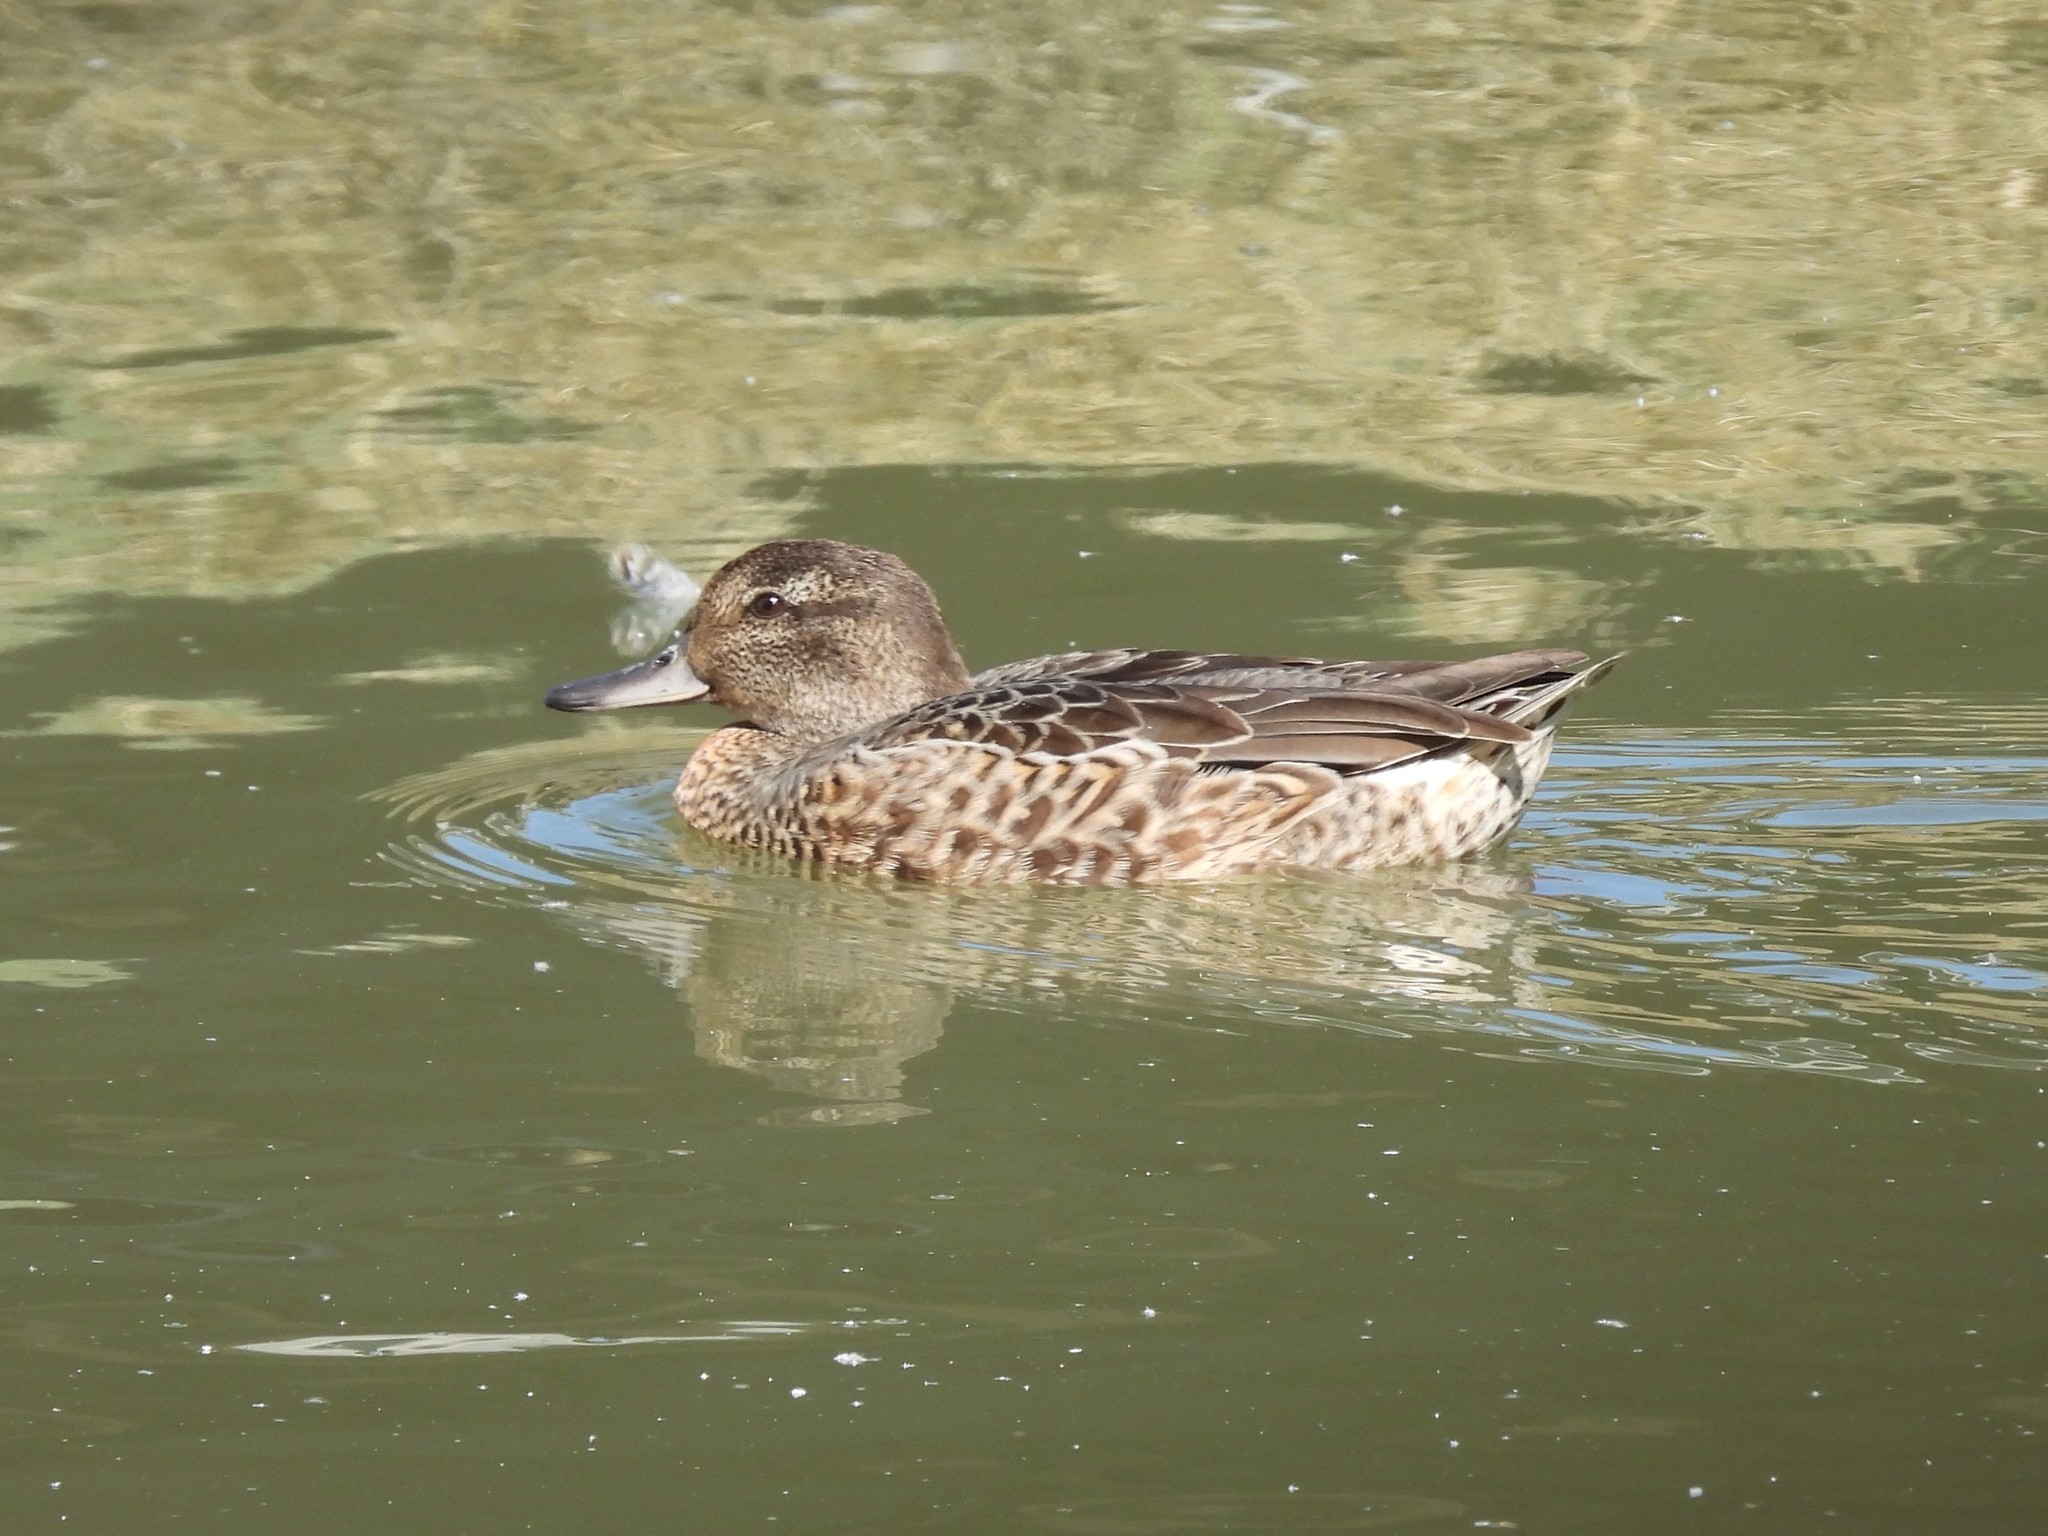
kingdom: Animalia
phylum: Chordata
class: Aves
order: Anseriformes
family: Anatidae
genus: Anas
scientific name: Anas crecca
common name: Eurasian teal
